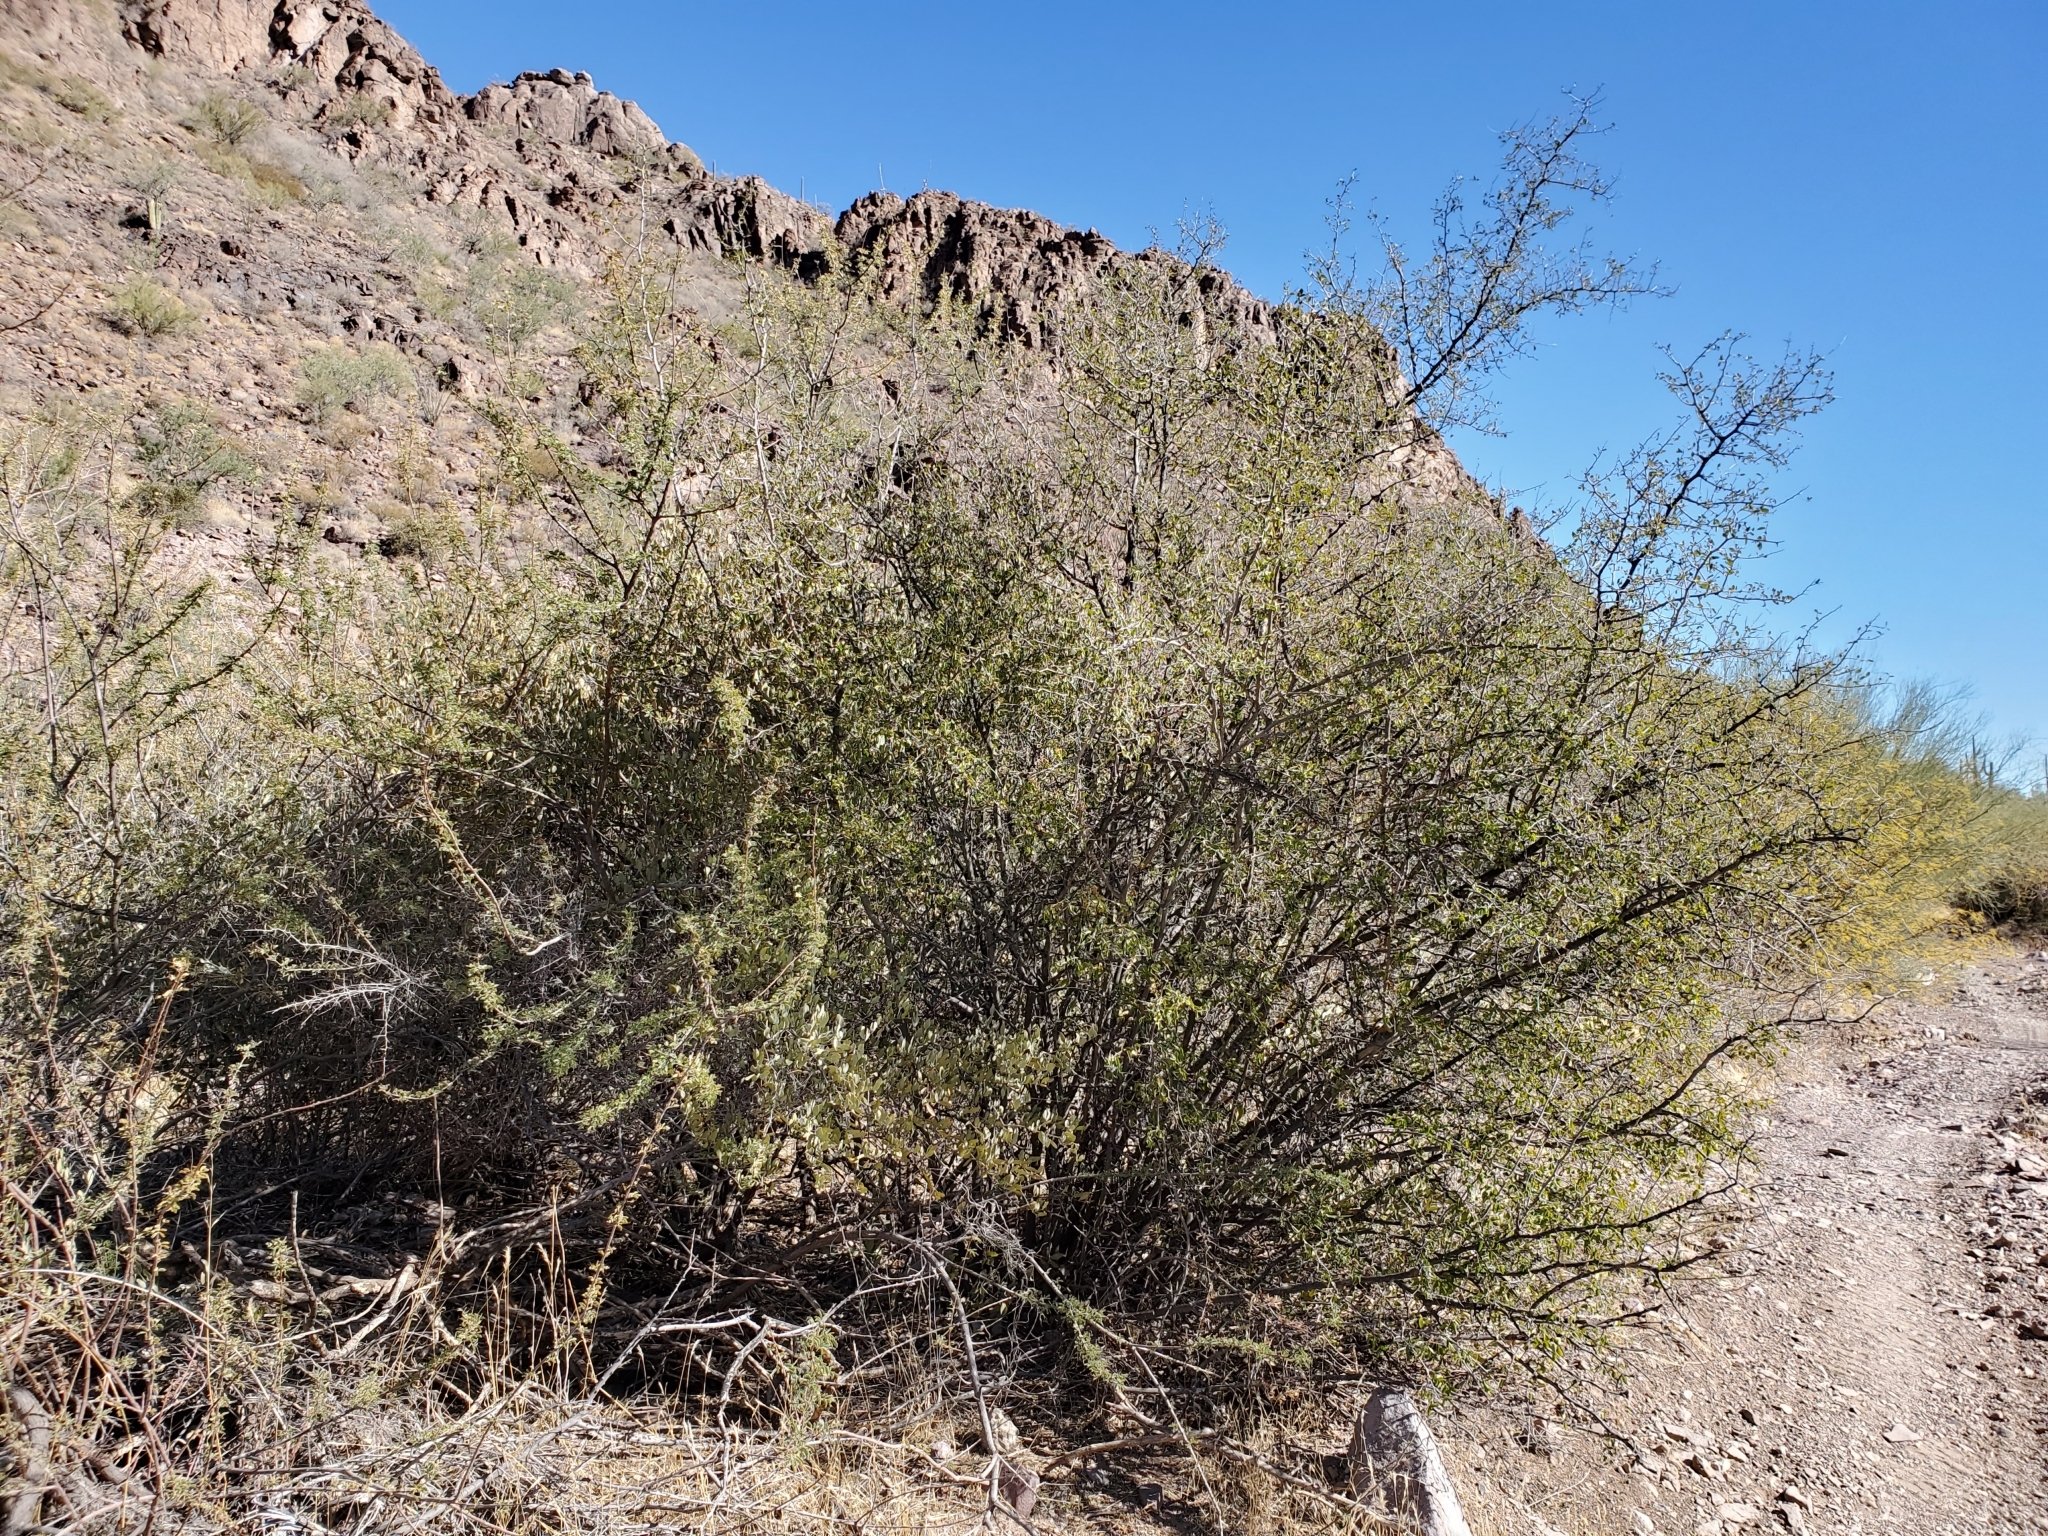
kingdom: Plantae
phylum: Tracheophyta
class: Magnoliopsida
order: Rosales
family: Cannabaceae
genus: Celtis
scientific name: Celtis pallida
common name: Desert hackberry
